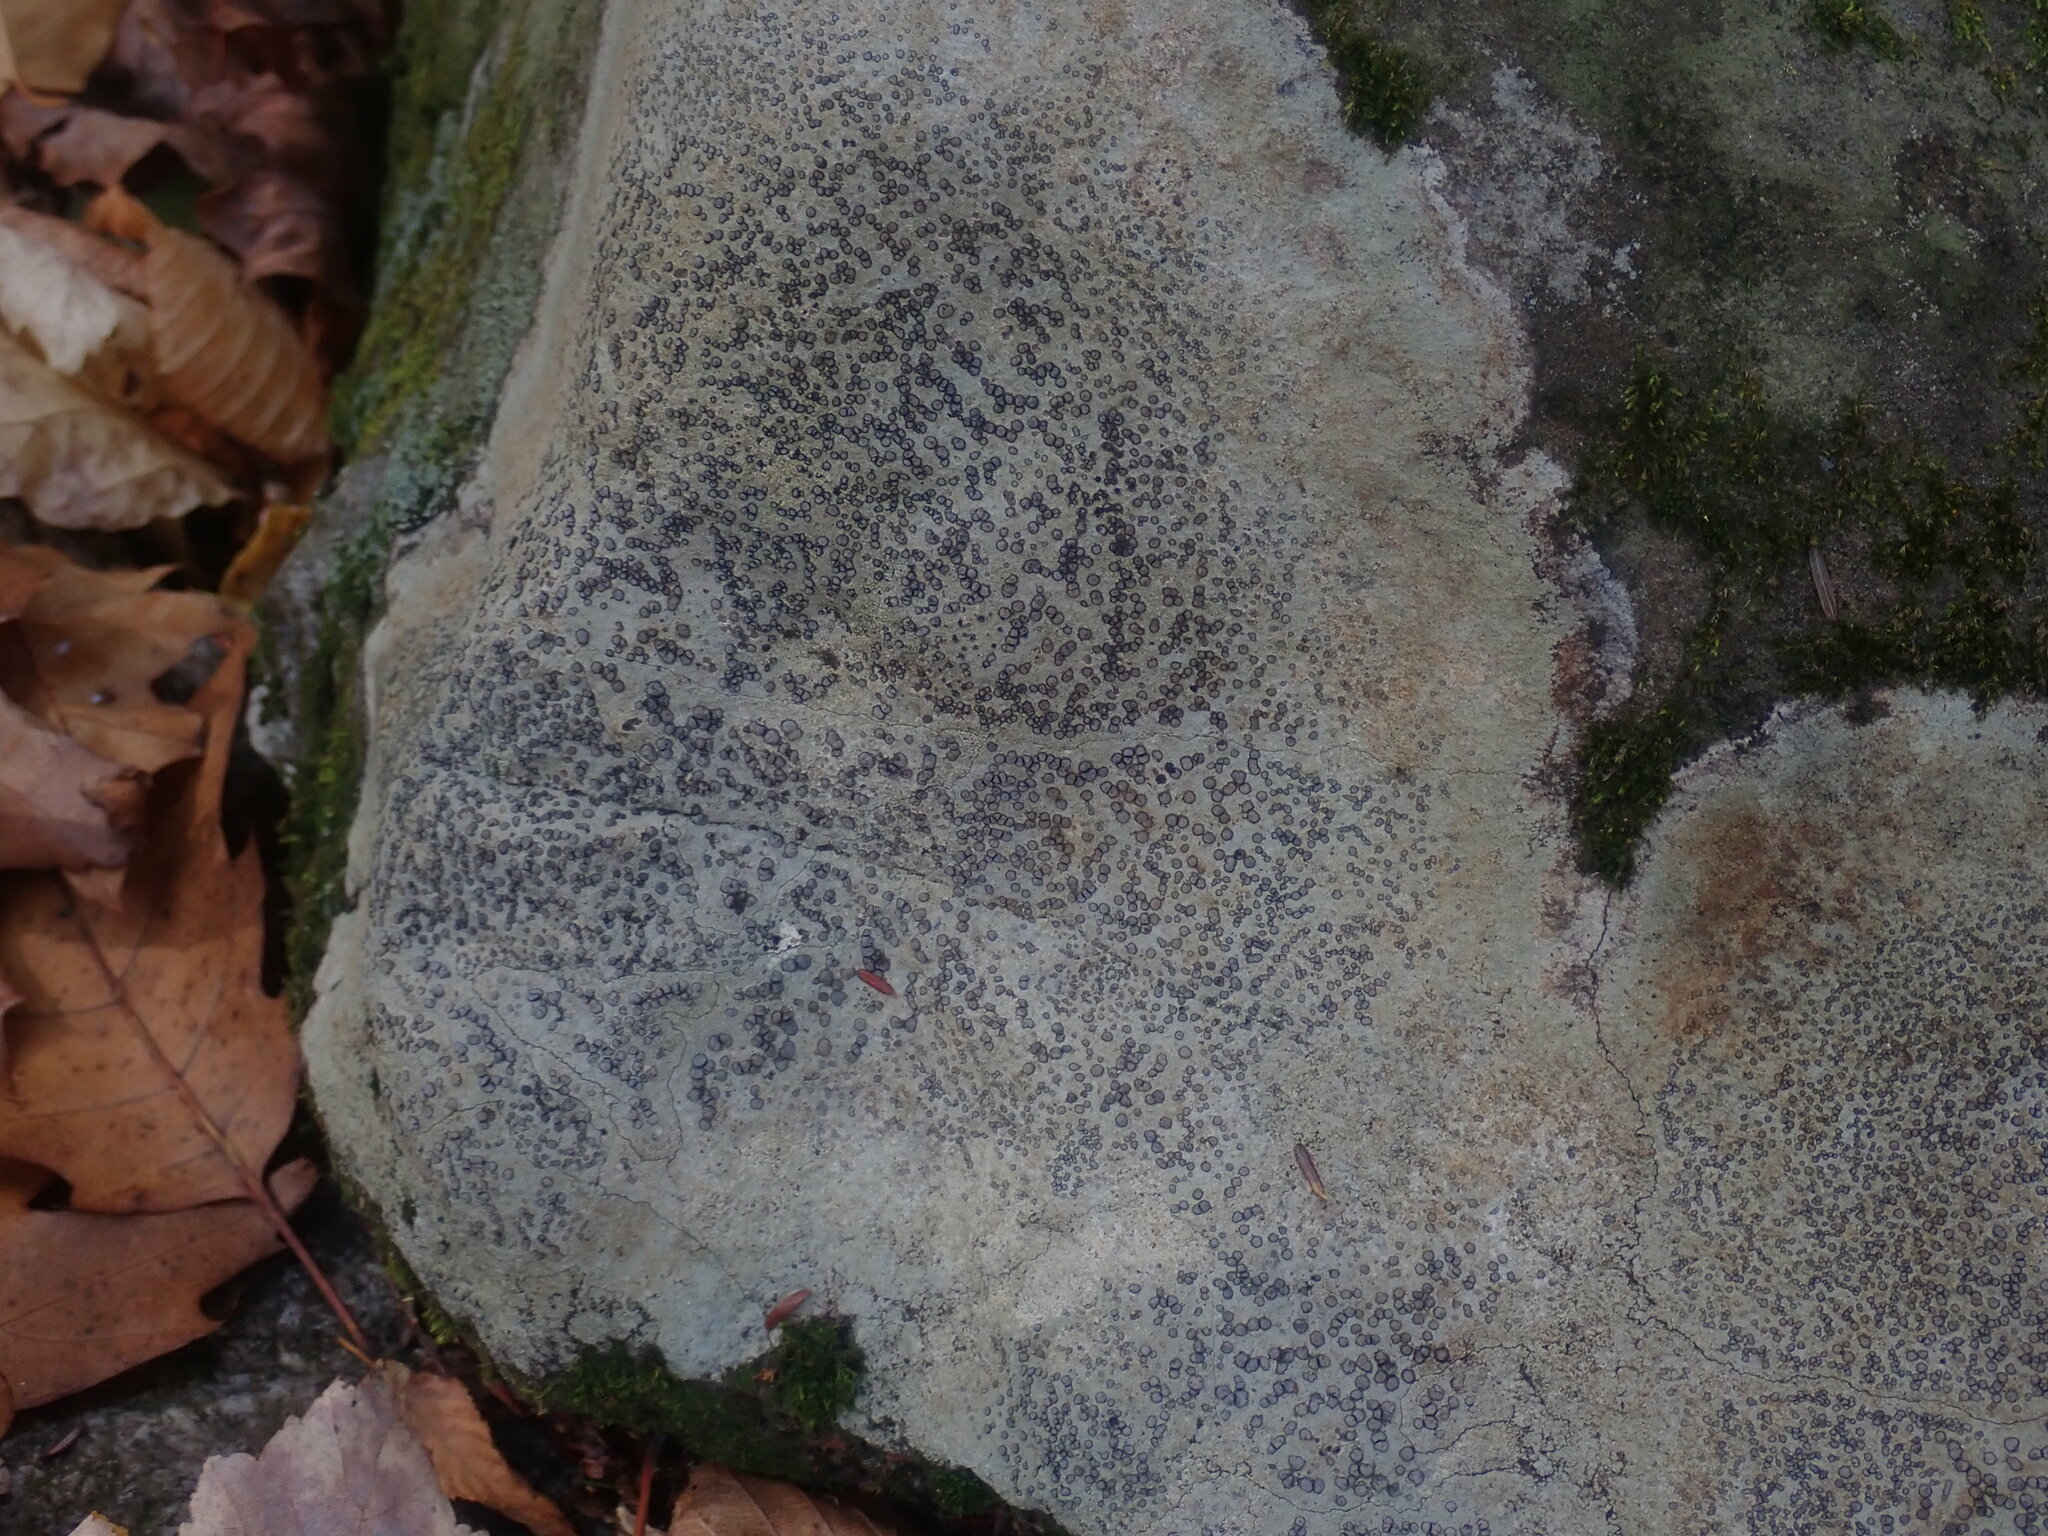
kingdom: Fungi
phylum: Ascomycota
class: Lecanoromycetes
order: Lecideales
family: Lecideaceae
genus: Porpidia
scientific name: Porpidia albocaerulescens
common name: Smokey-eyed boulder lichen
